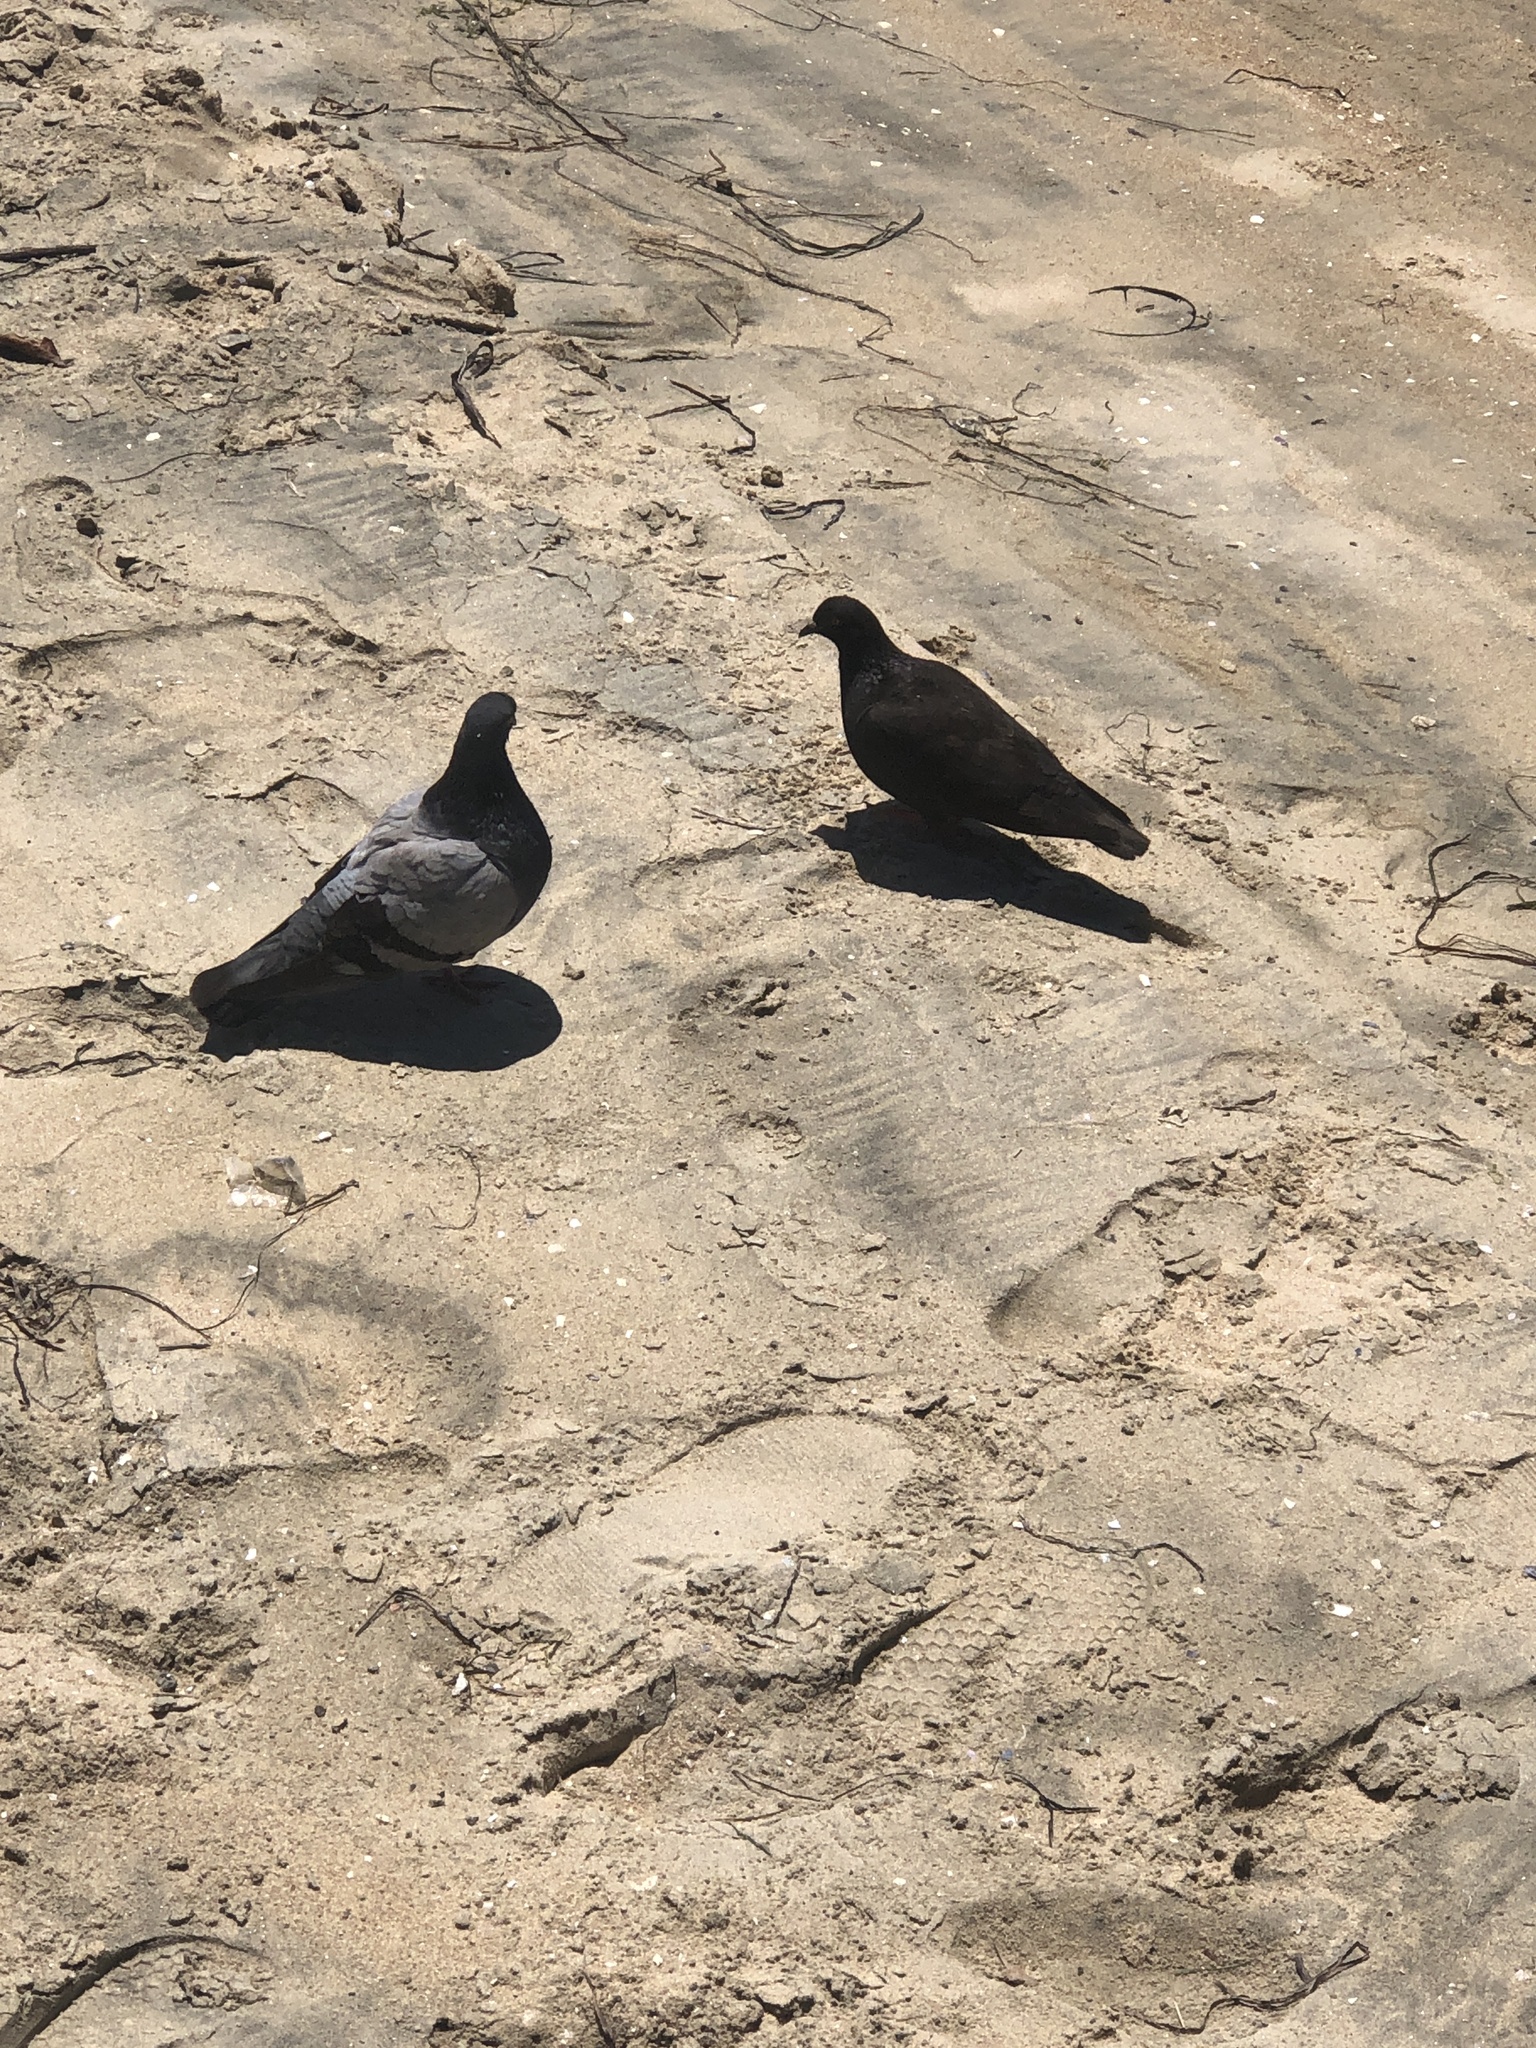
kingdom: Animalia
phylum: Chordata
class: Aves
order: Columbiformes
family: Columbidae
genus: Columba
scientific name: Columba livia
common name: Rock pigeon
